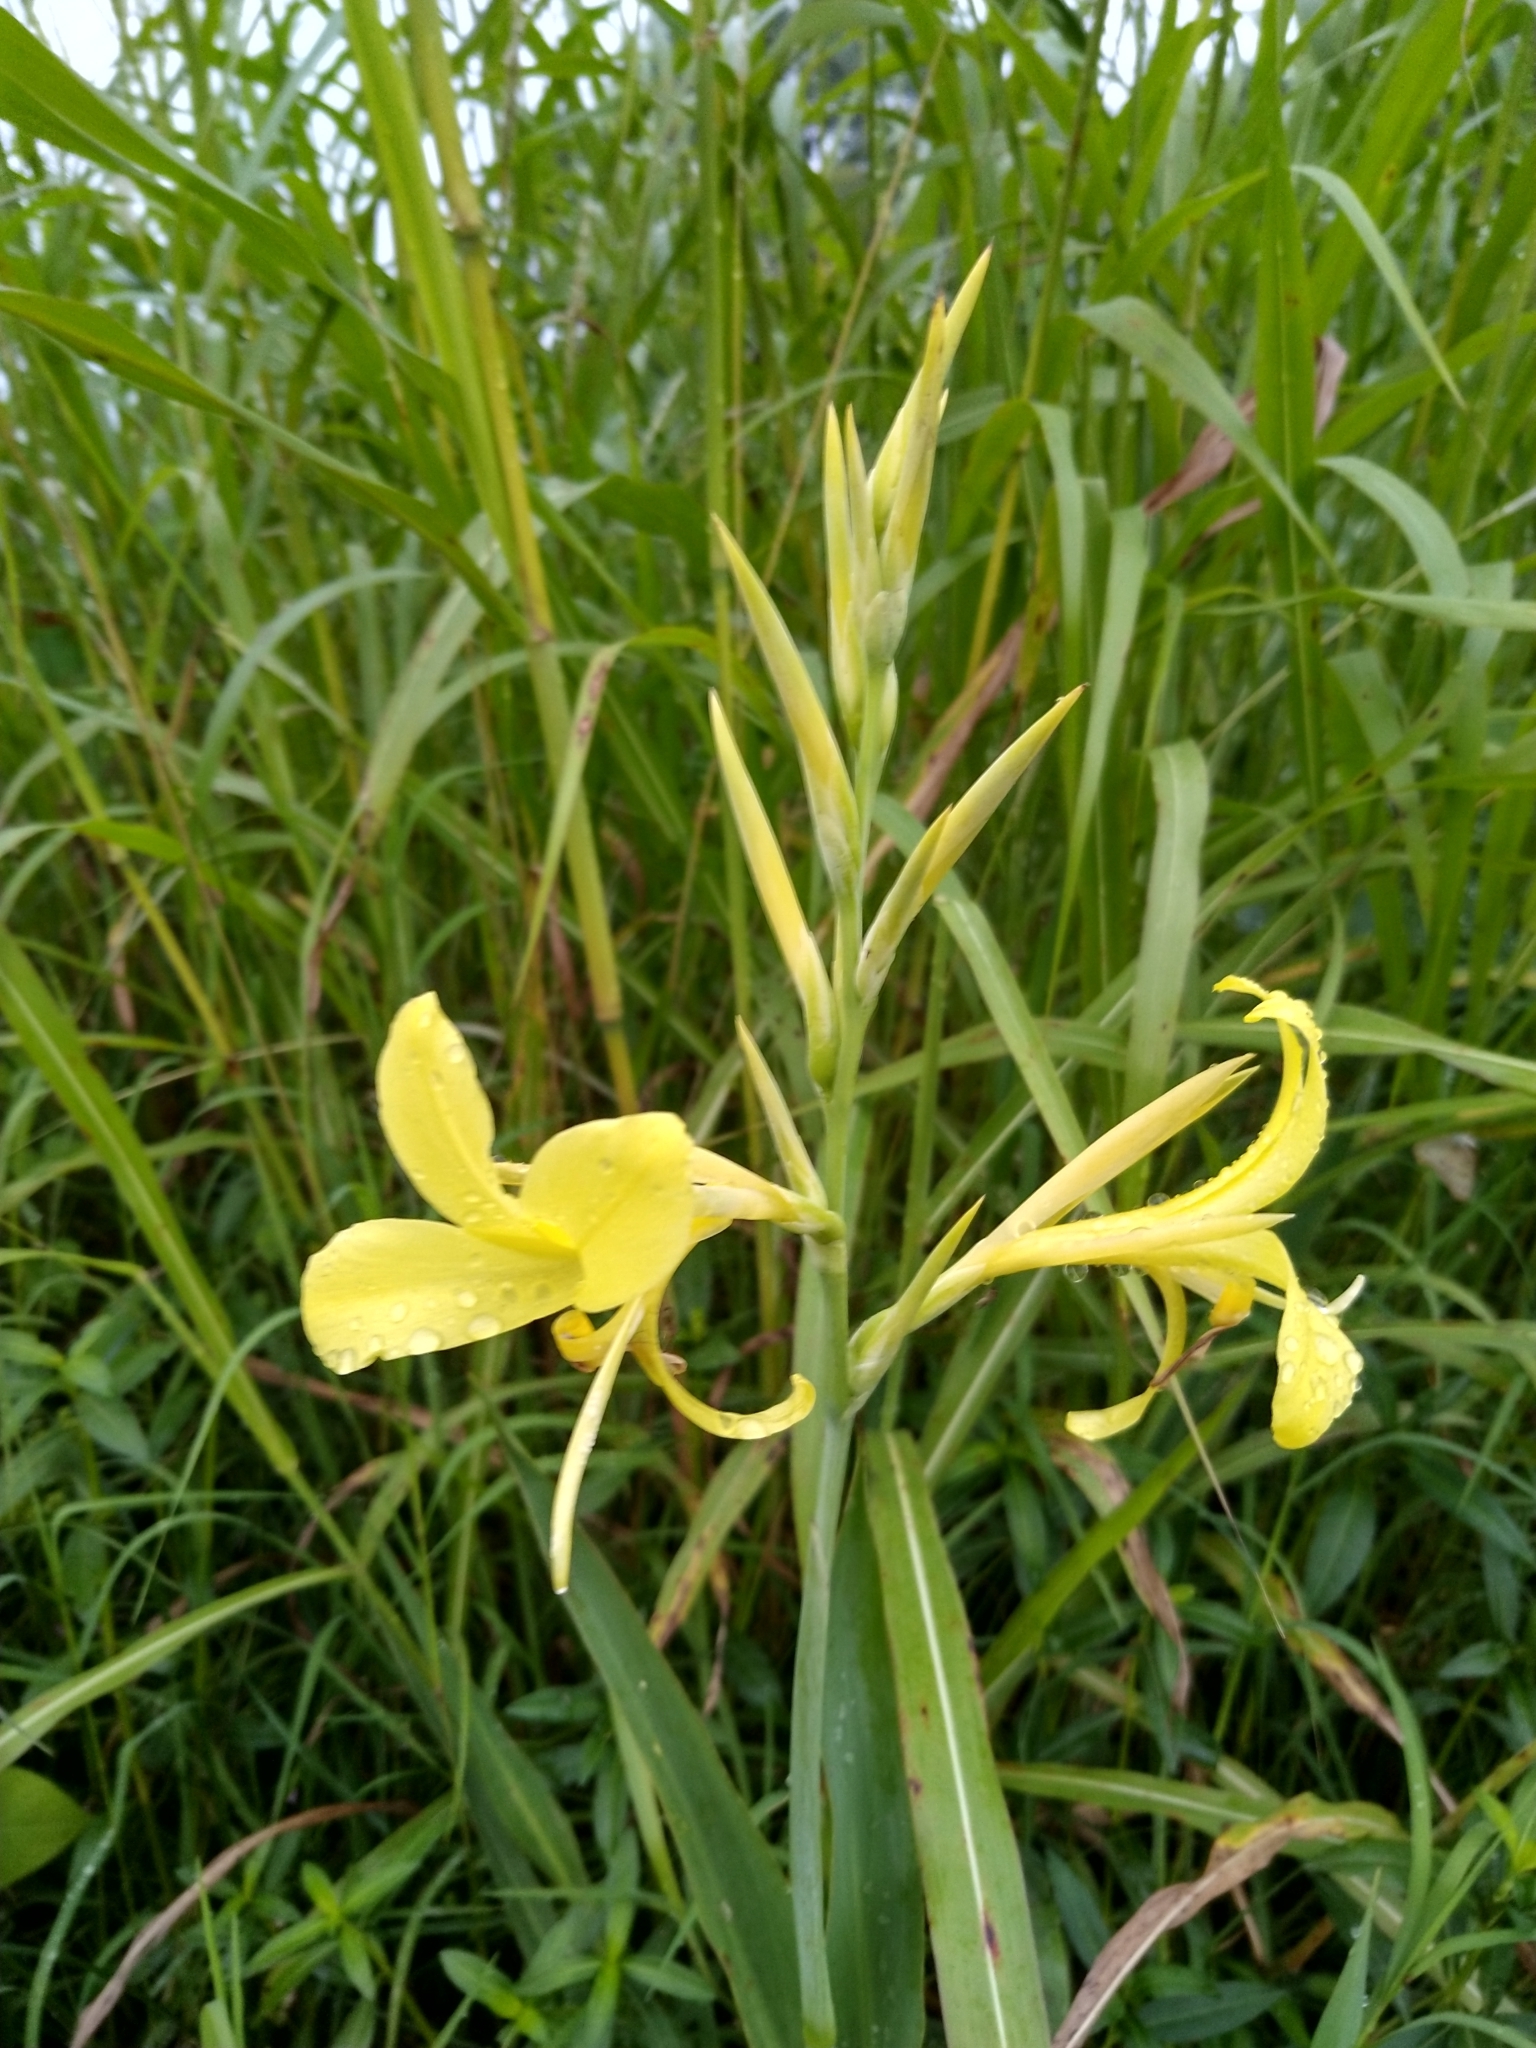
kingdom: Plantae
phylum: Tracheophyta
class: Liliopsida
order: Zingiberales
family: Cannaceae
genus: Canna
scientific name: Canna glauca
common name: Louisiana canna
